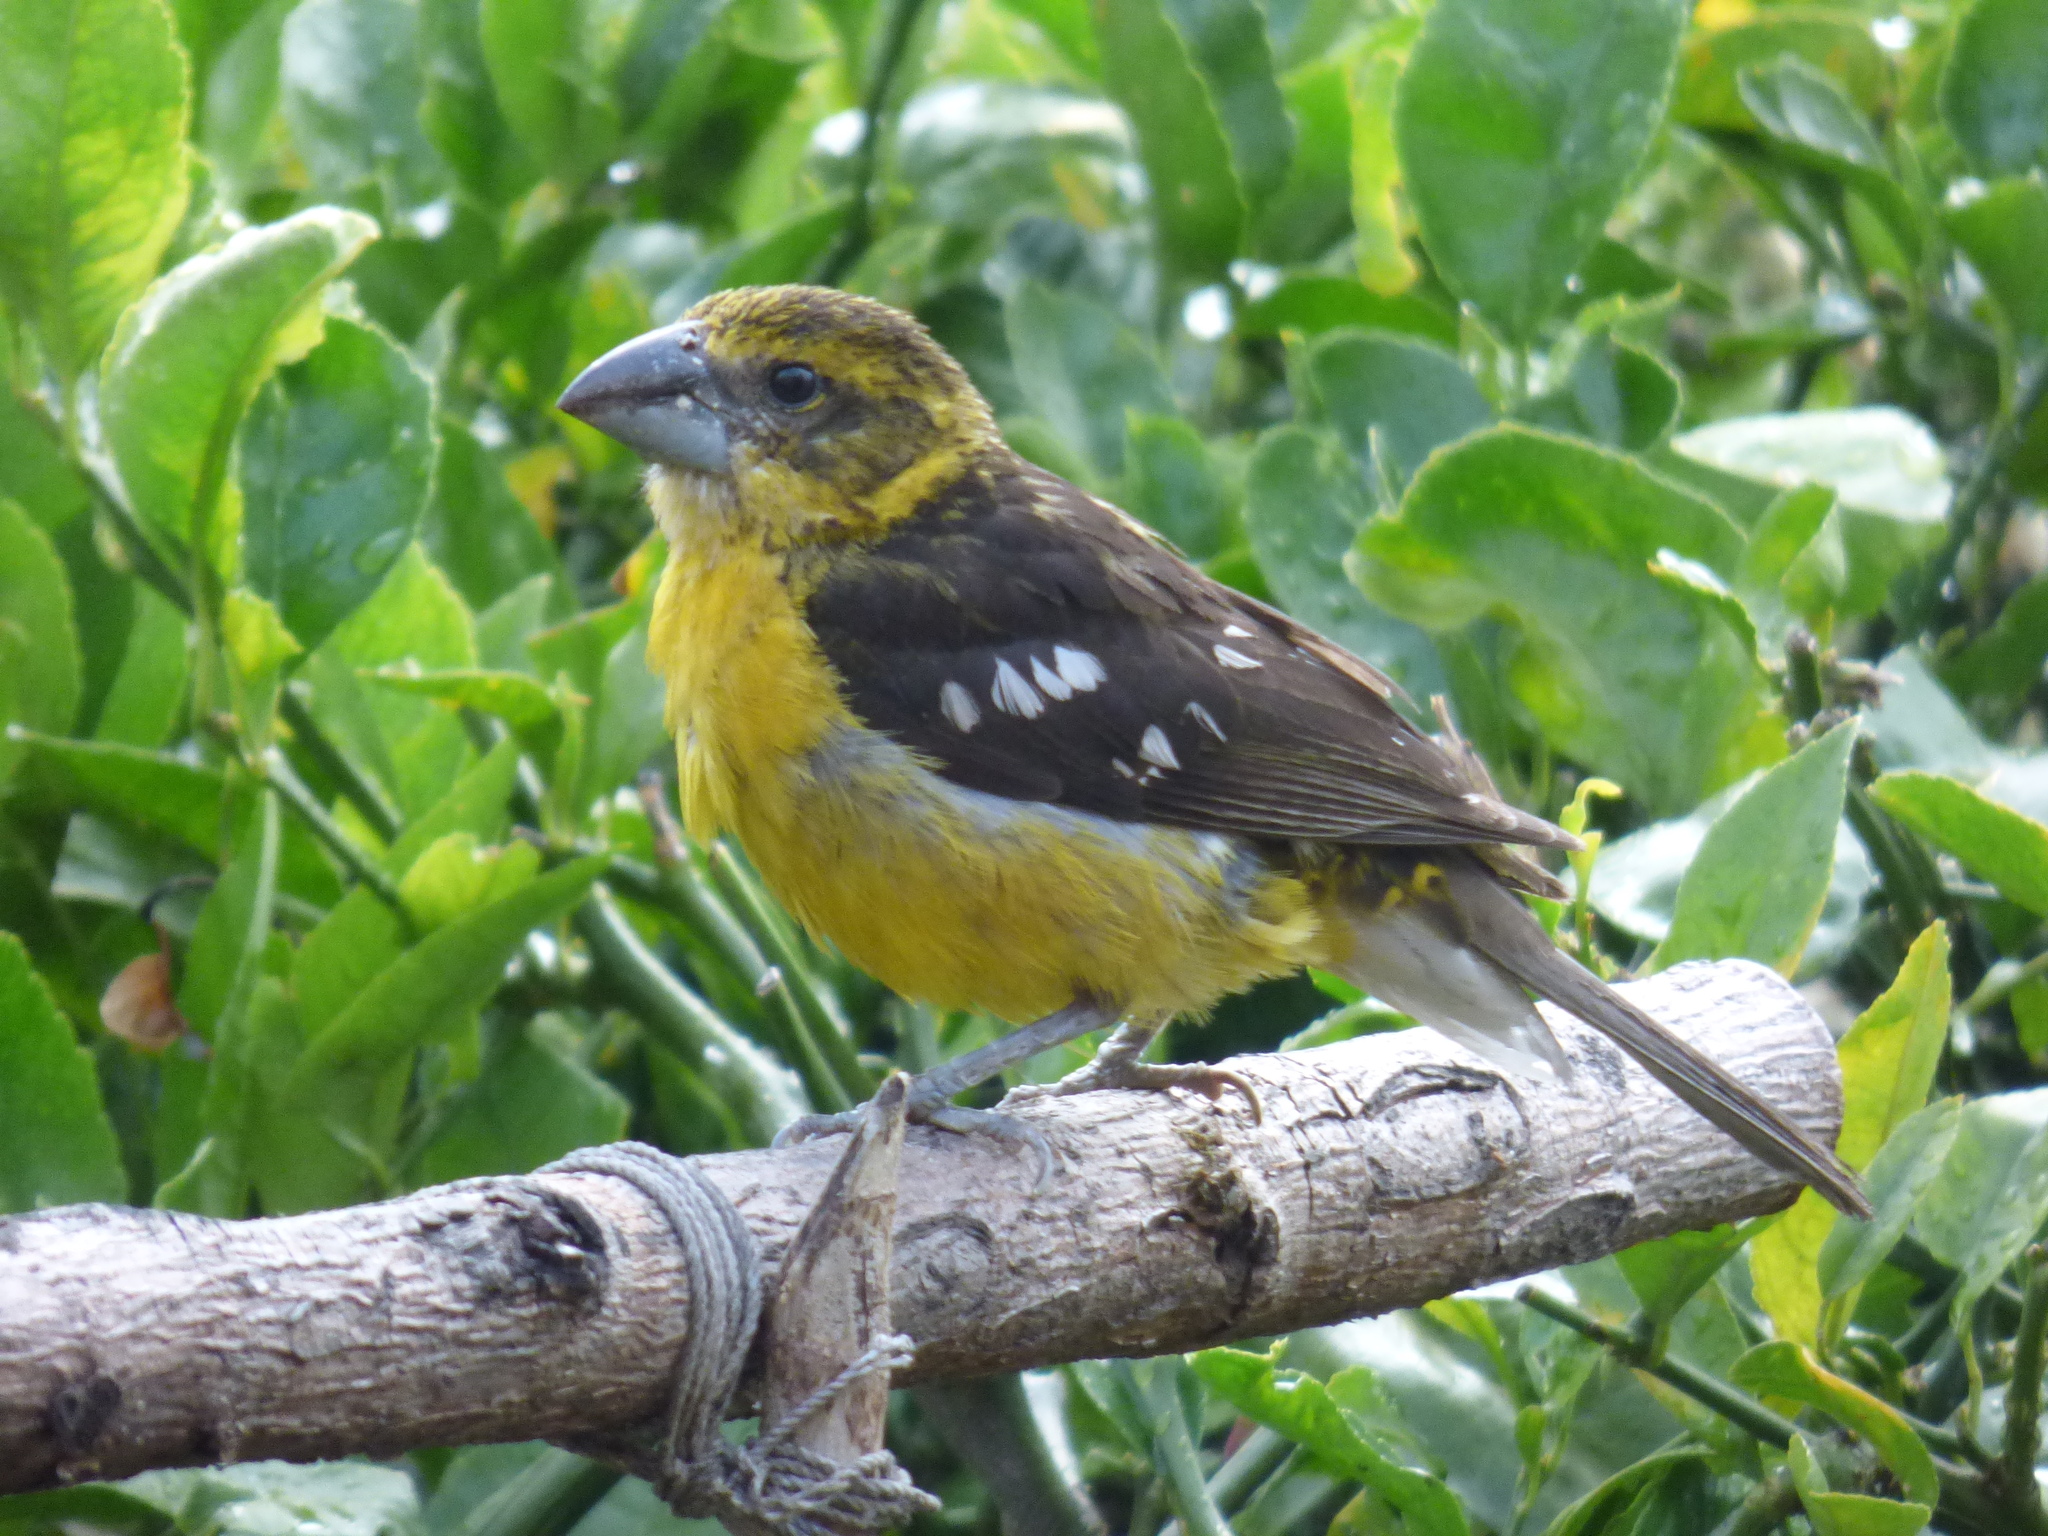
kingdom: Animalia
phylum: Chordata
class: Aves
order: Passeriformes
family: Cardinalidae
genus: Pheucticus
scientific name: Pheucticus chrysogaster
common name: Golden grosbeak
